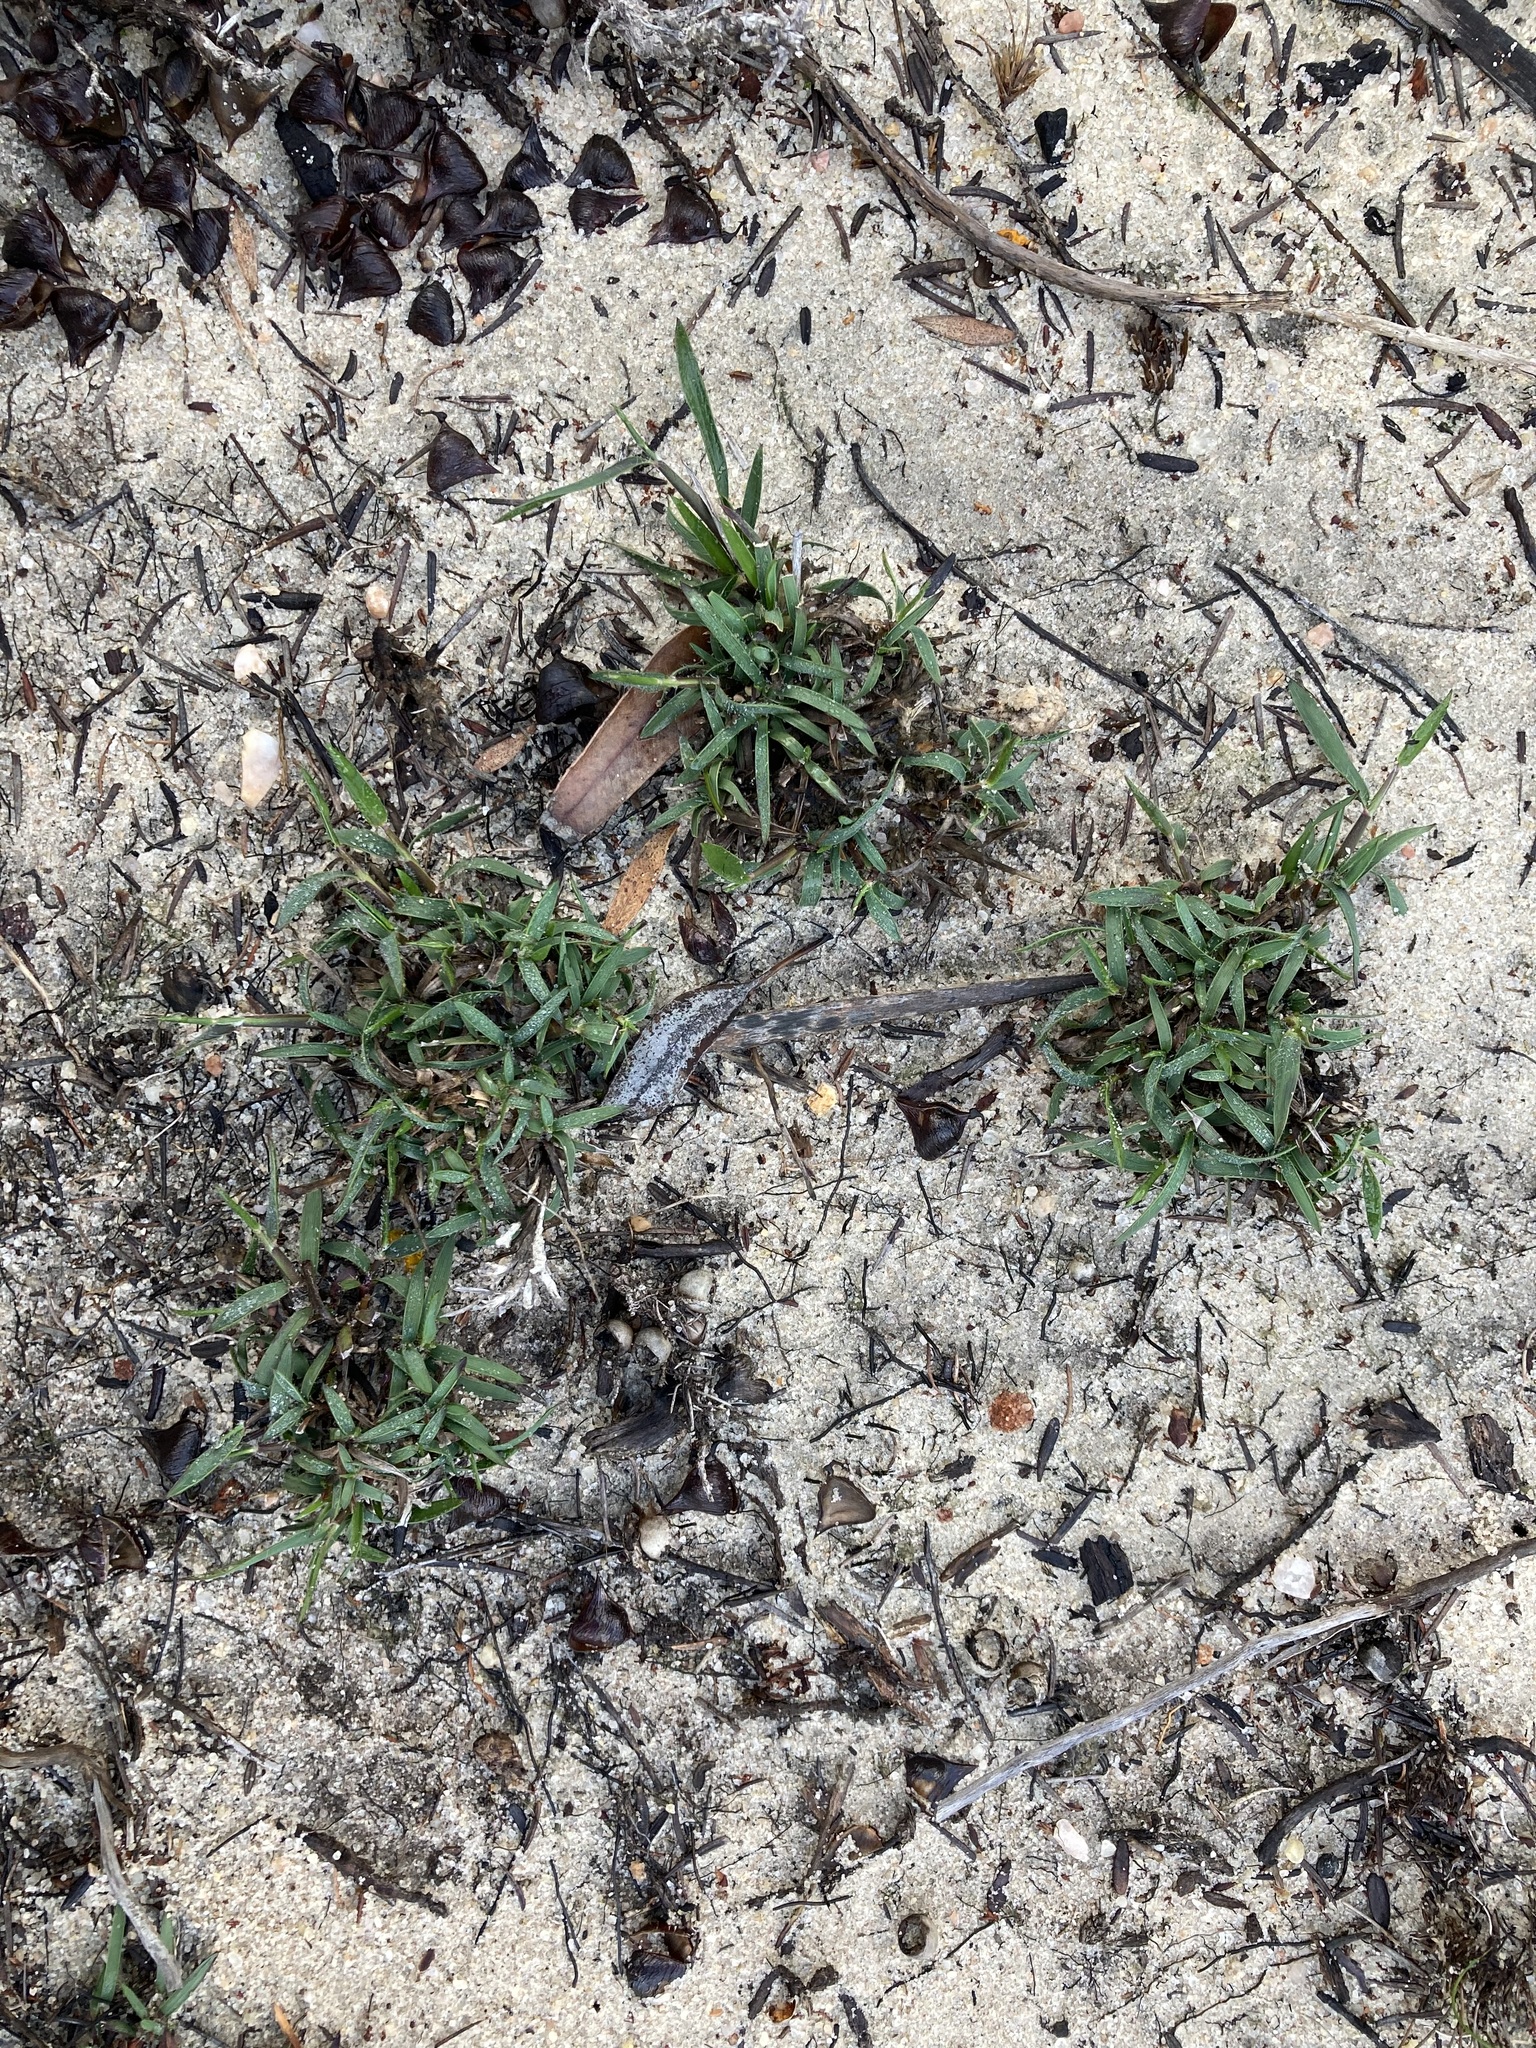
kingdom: Plantae
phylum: Tracheophyta
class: Liliopsida
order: Poales
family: Poaceae
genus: Neurachne
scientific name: Neurachne alopecuroidea
